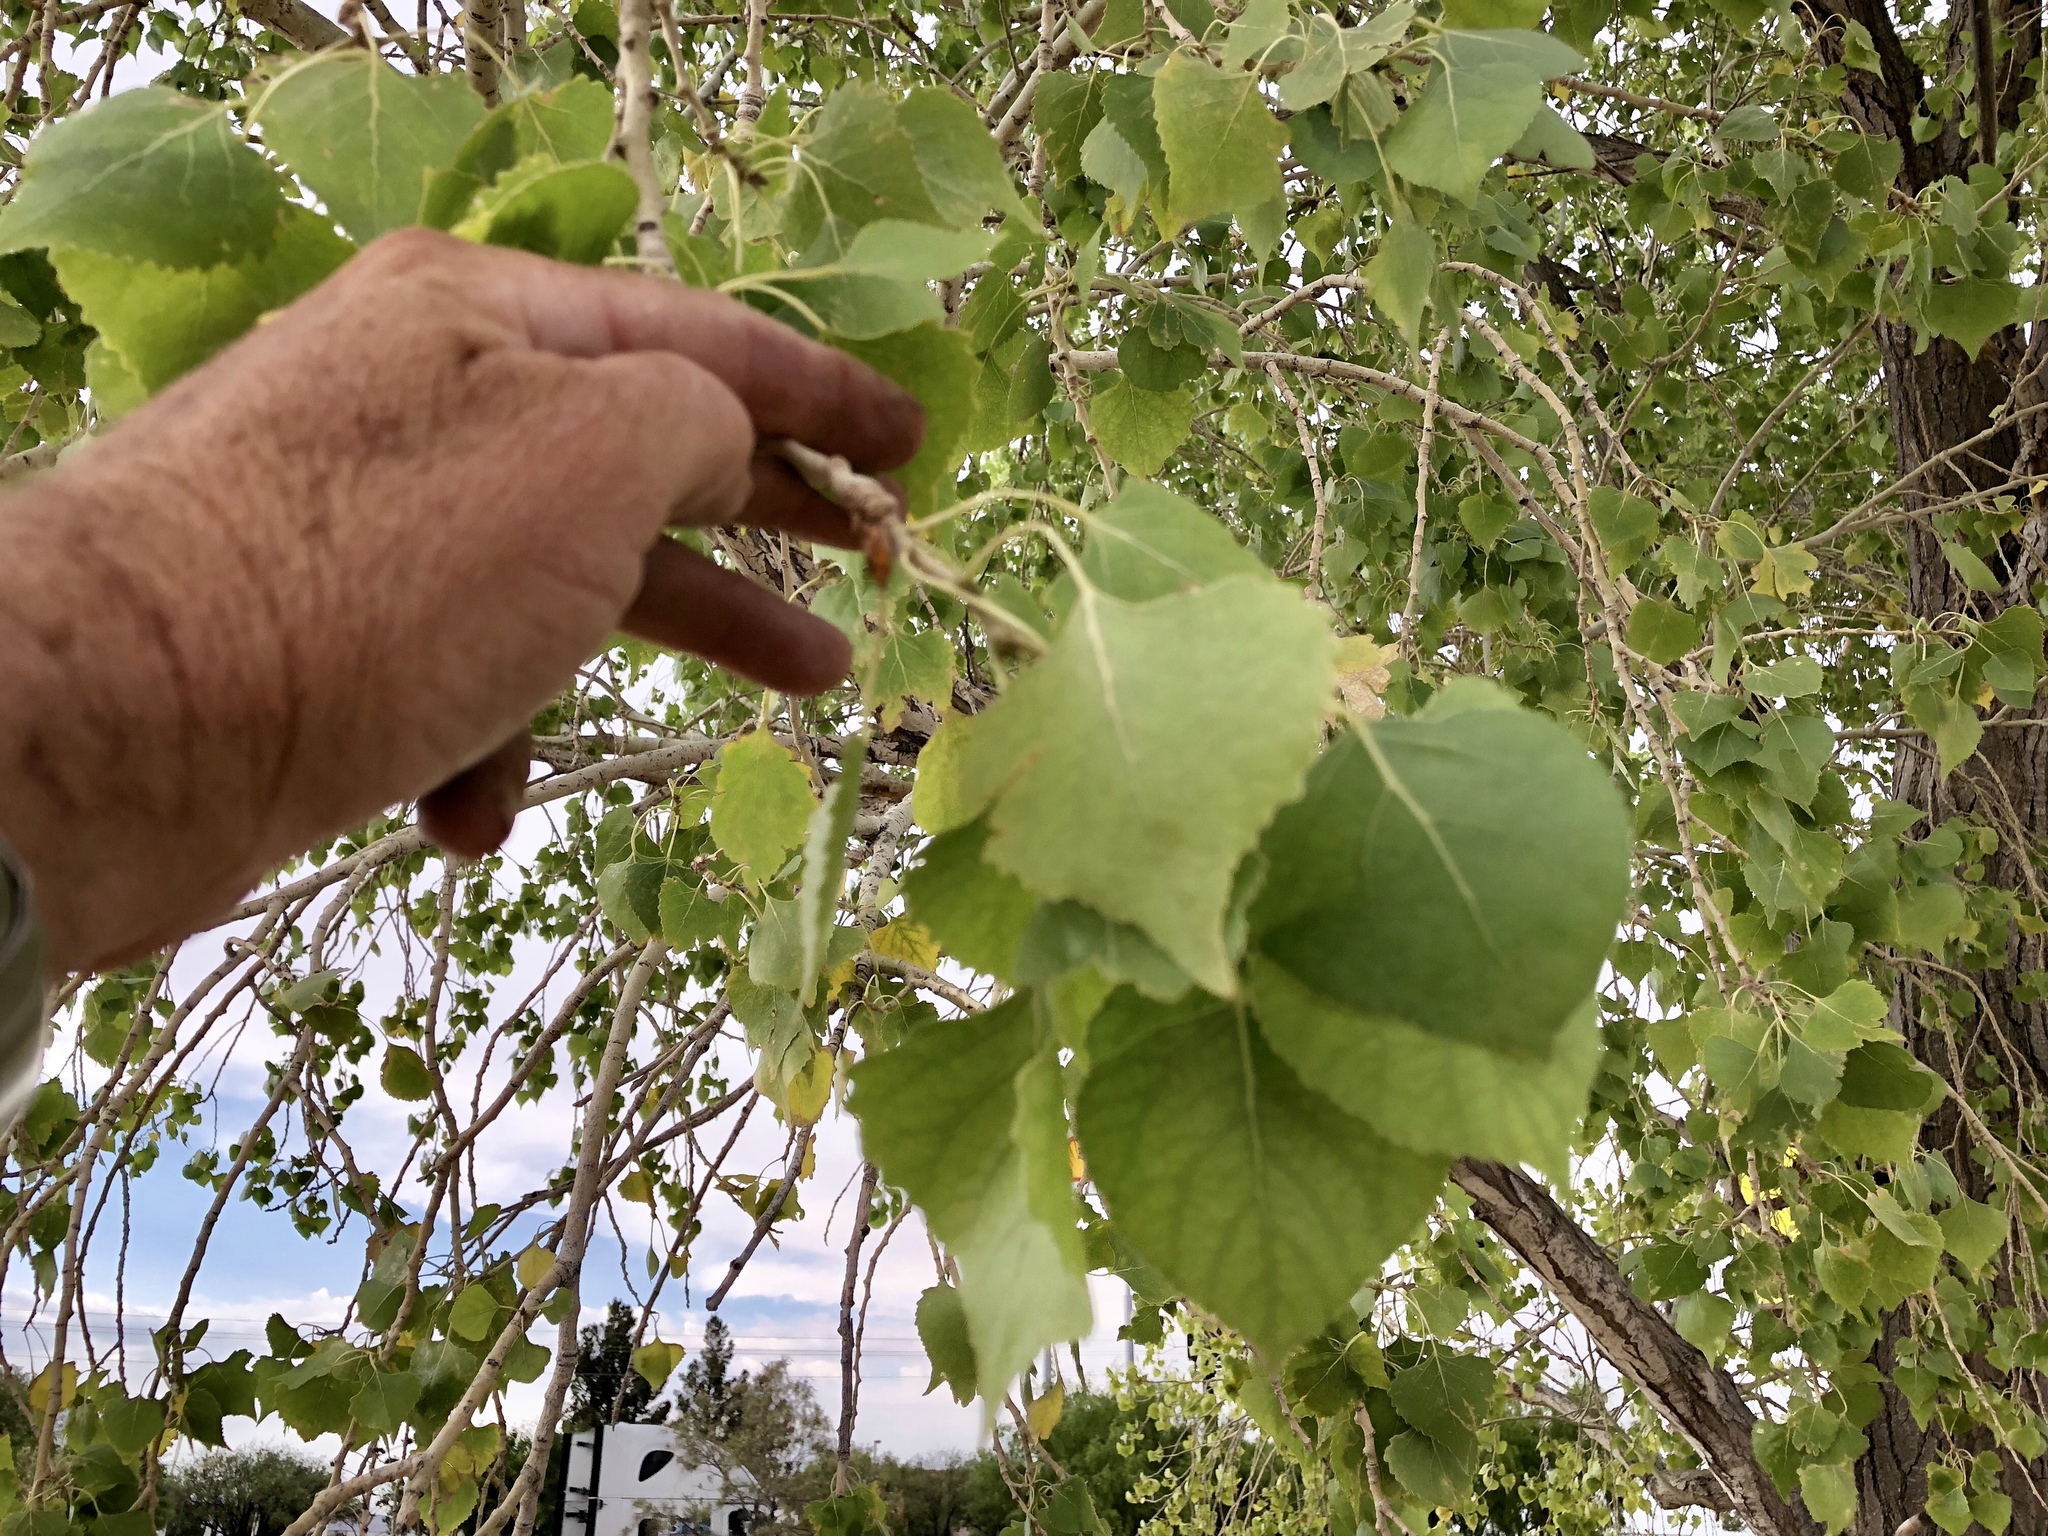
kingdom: Plantae
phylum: Tracheophyta
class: Magnoliopsida
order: Malpighiales
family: Salicaceae
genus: Populus
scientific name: Populus fremontii
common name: Fremont's cottonwood
